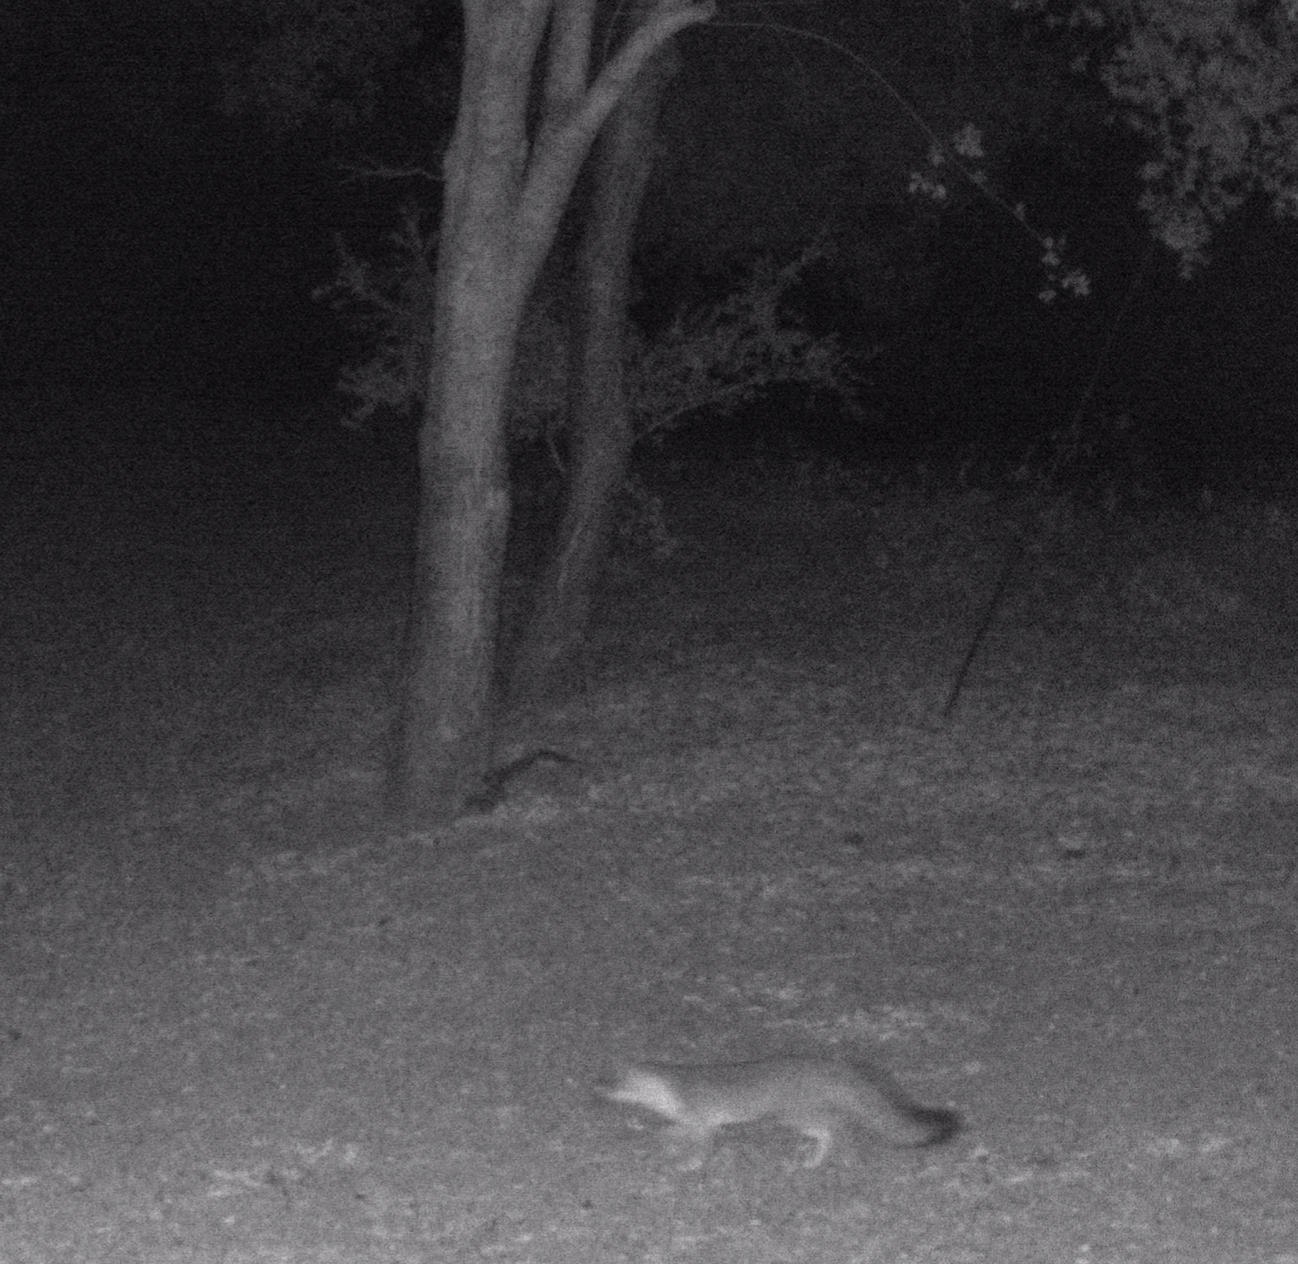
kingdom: Animalia
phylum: Chordata
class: Mammalia
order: Carnivora
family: Canidae
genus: Urocyon
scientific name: Urocyon cinereoargenteus
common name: Gray fox
